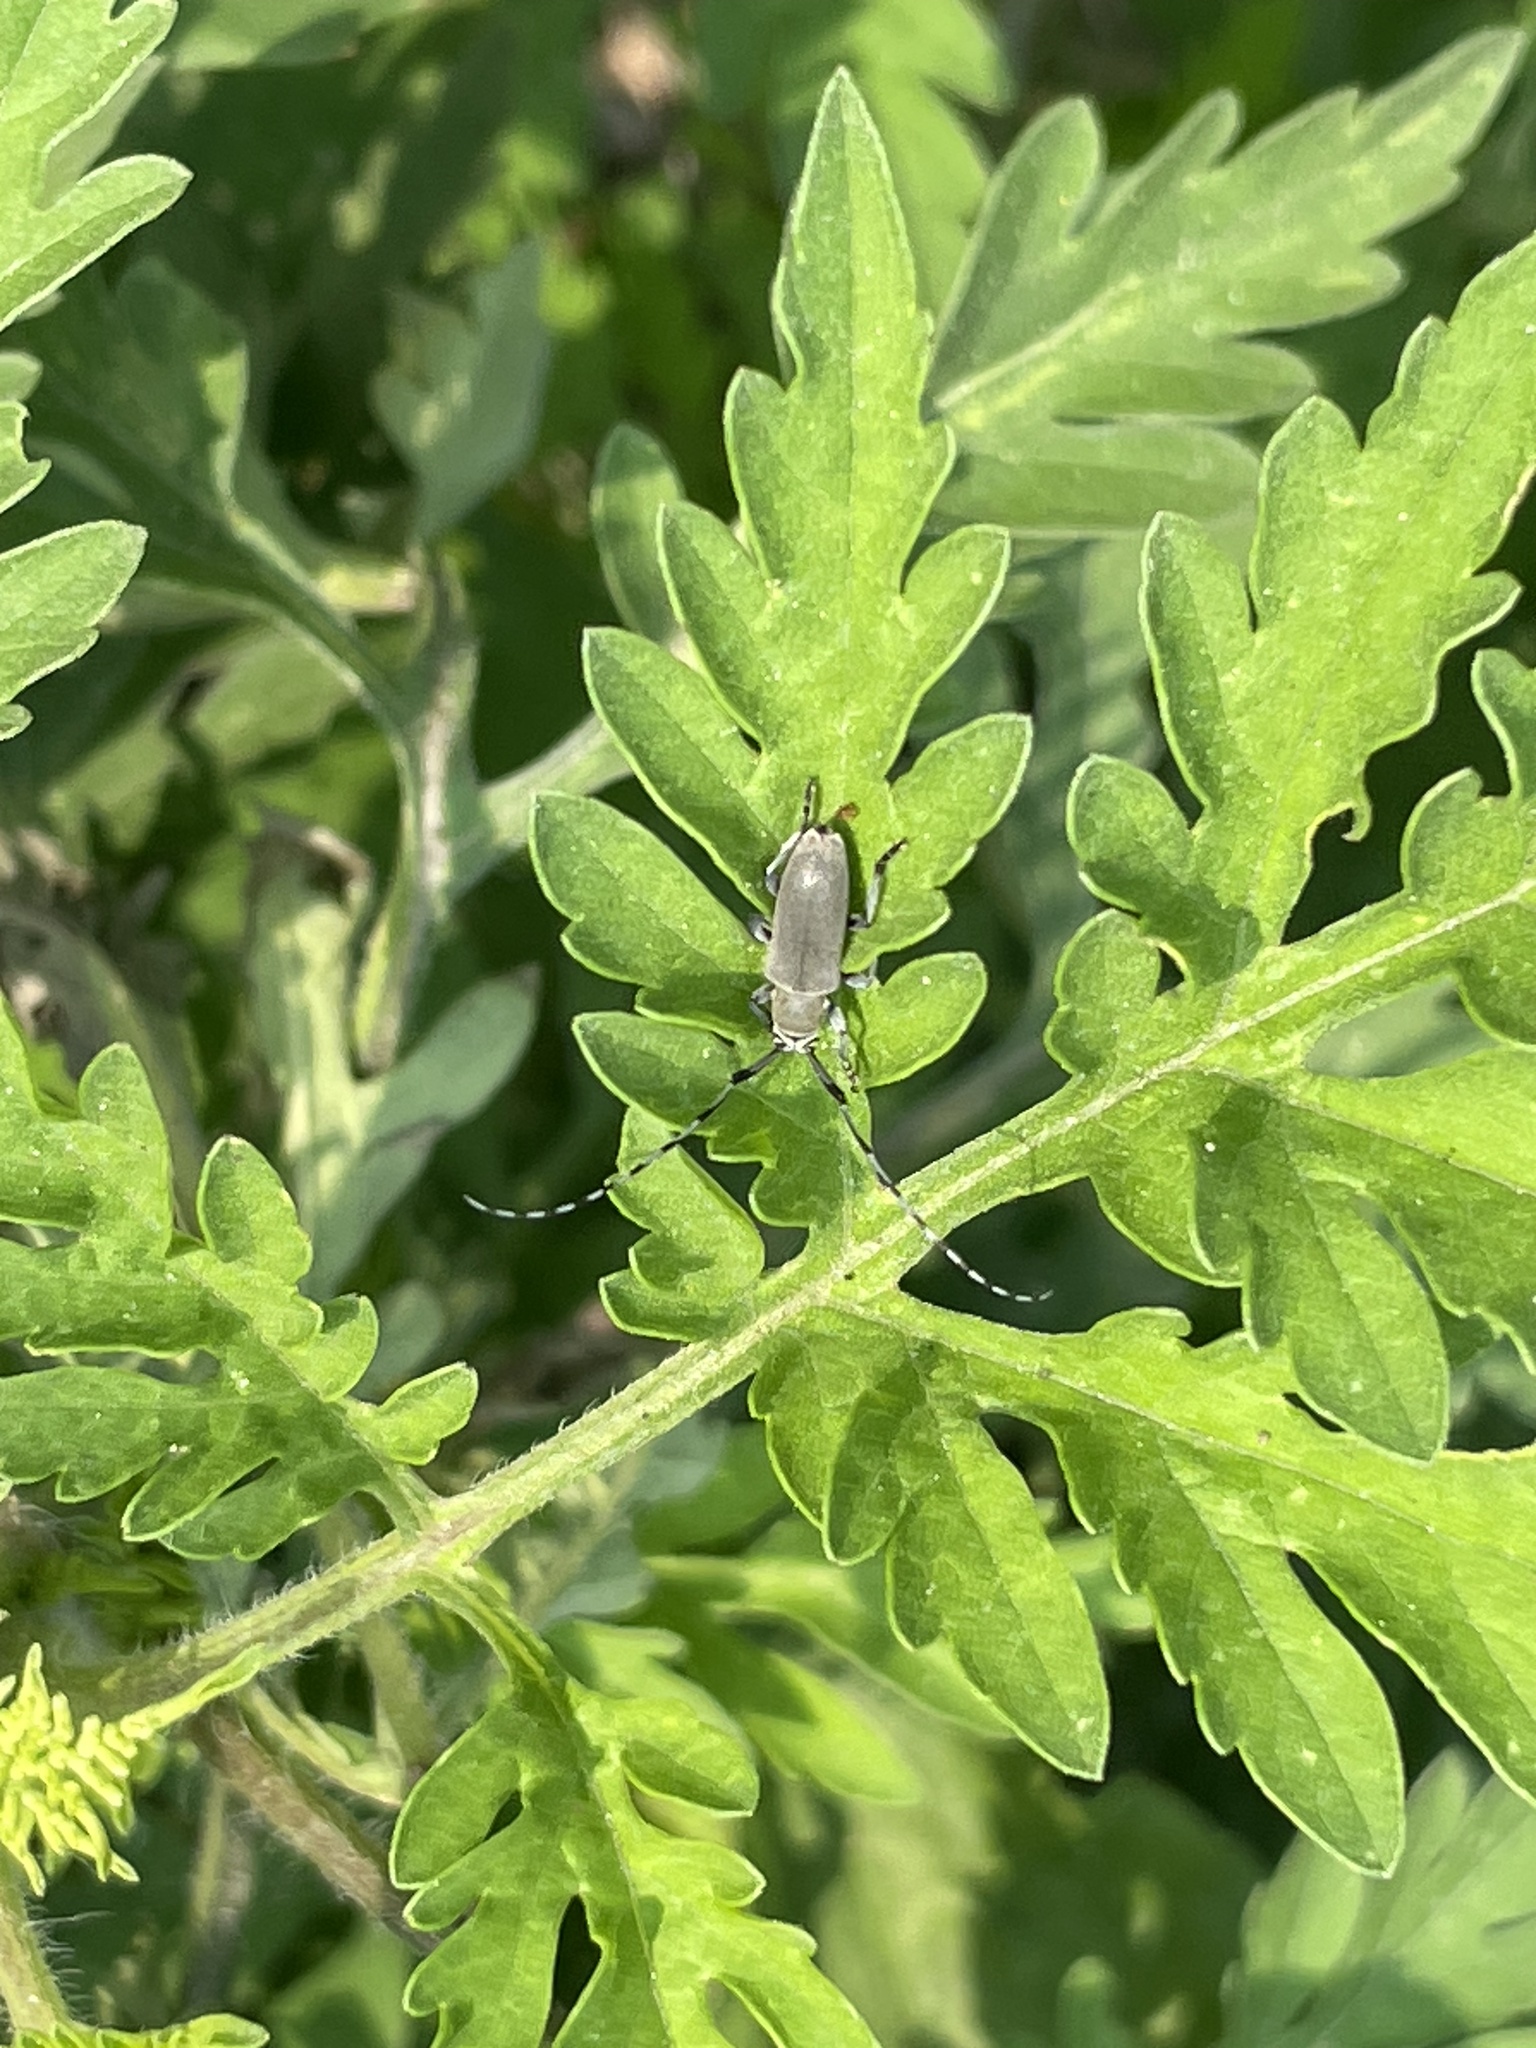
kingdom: Animalia
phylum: Arthropoda
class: Insecta
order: Coleoptera
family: Cerambycidae
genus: Dectes
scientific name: Dectes texanus
